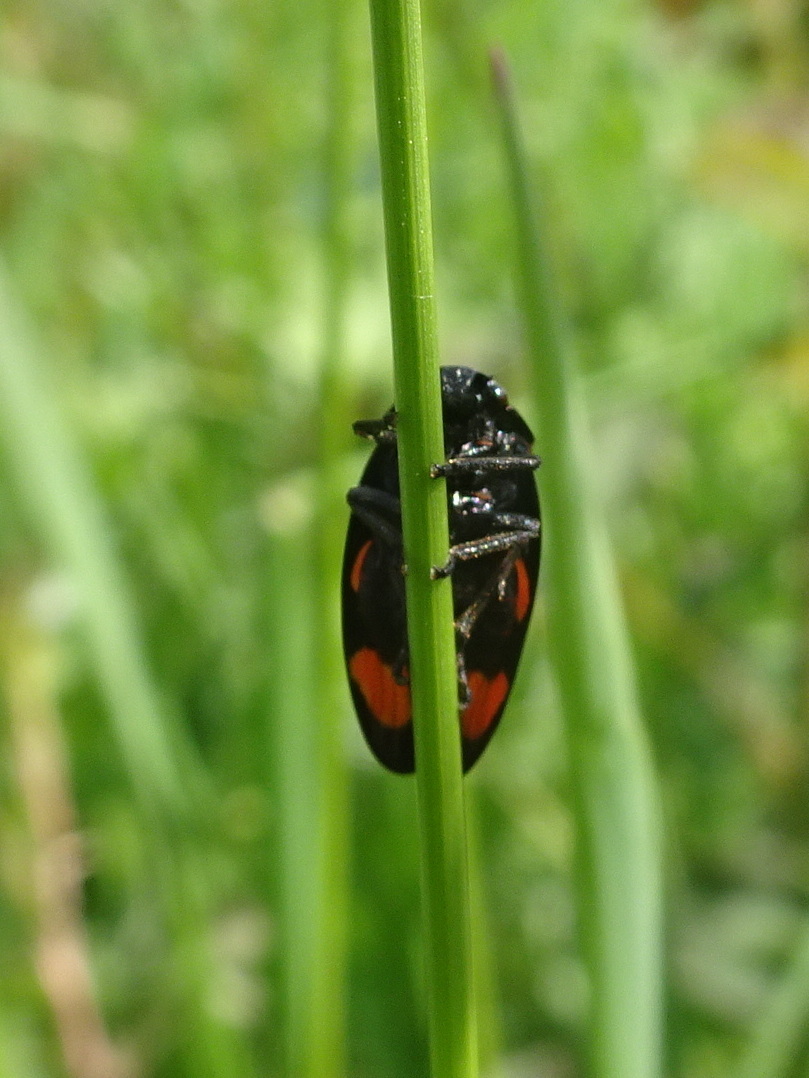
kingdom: Animalia
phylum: Arthropoda
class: Insecta
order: Hemiptera
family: Cercopidae
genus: Cercopis
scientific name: Cercopis vulnerata
